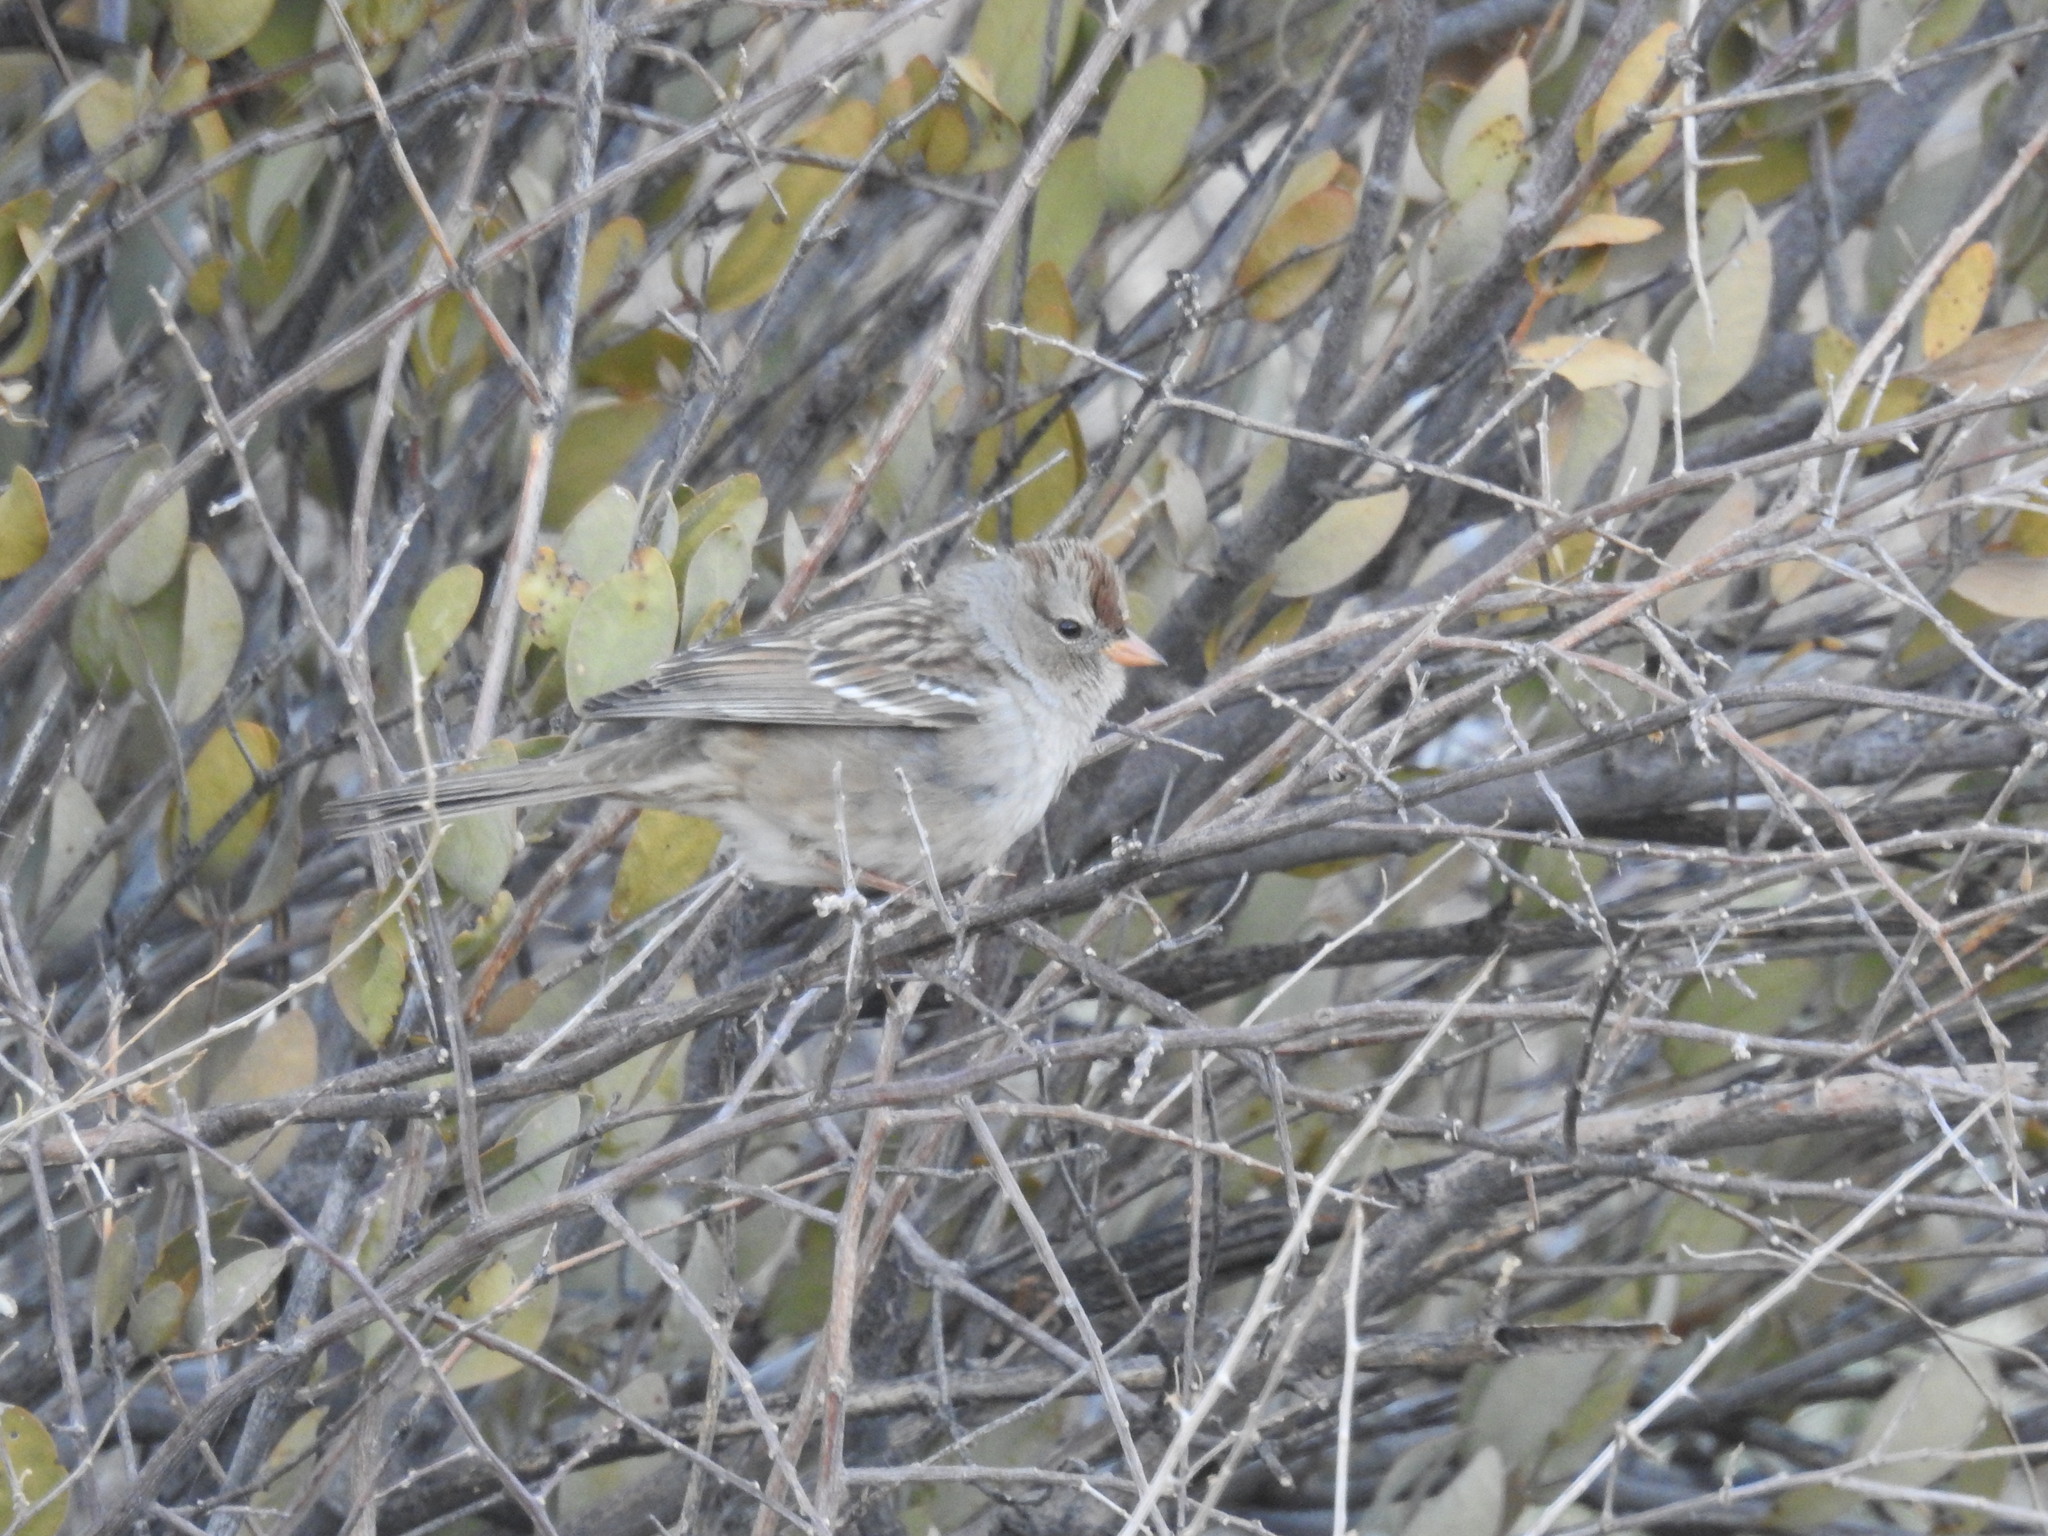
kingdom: Animalia
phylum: Chordata
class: Aves
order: Passeriformes
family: Passerellidae
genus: Zonotrichia
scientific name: Zonotrichia leucophrys
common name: White-crowned sparrow
